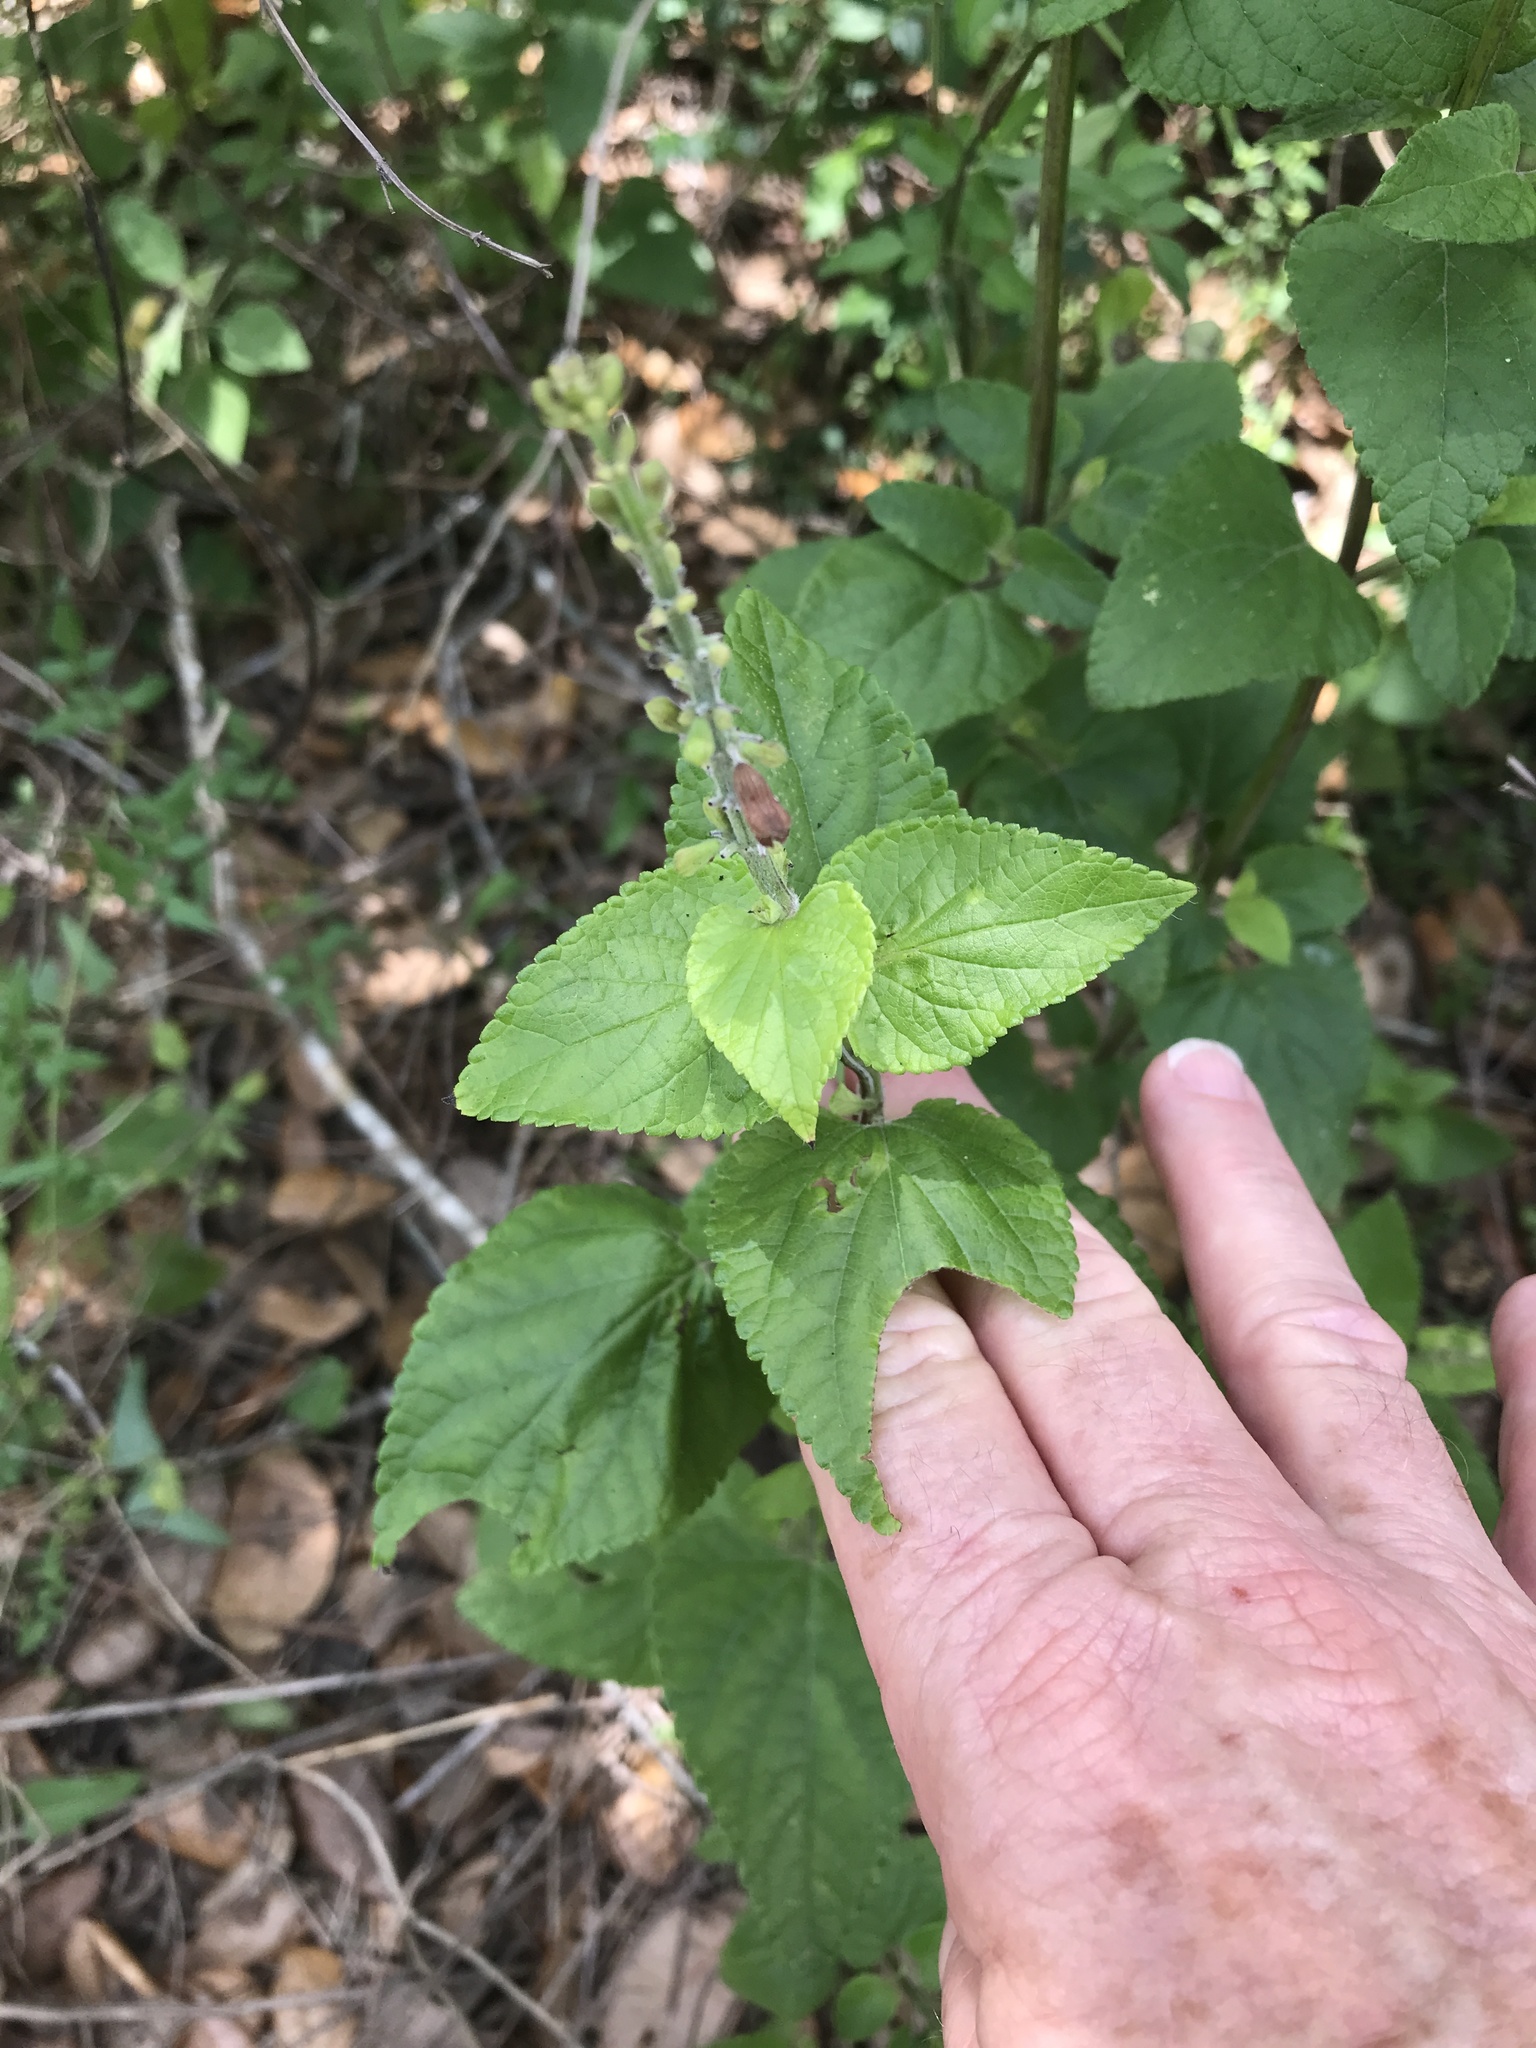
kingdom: Plantae
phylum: Tracheophyta
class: Magnoliopsida
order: Lamiales
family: Lamiaceae
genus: Salvia
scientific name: Salvia coccinea
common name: Blood sage
